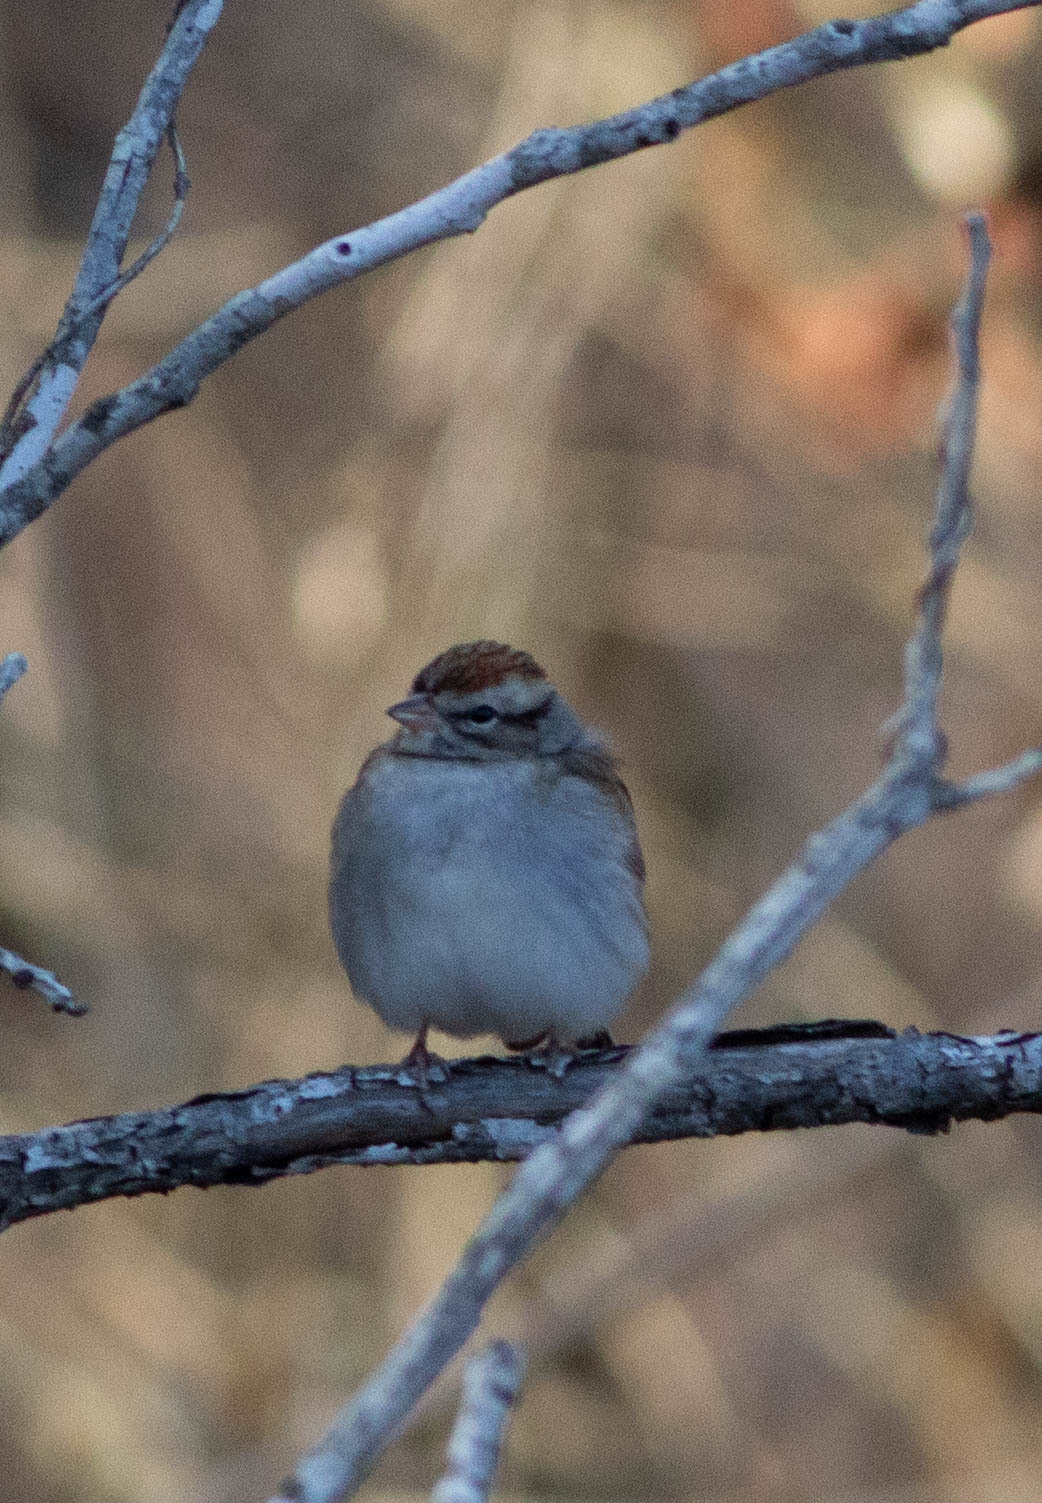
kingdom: Animalia
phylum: Chordata
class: Aves
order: Passeriformes
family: Passerellidae
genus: Spizella
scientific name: Spizella passerina
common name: Chipping sparrow
